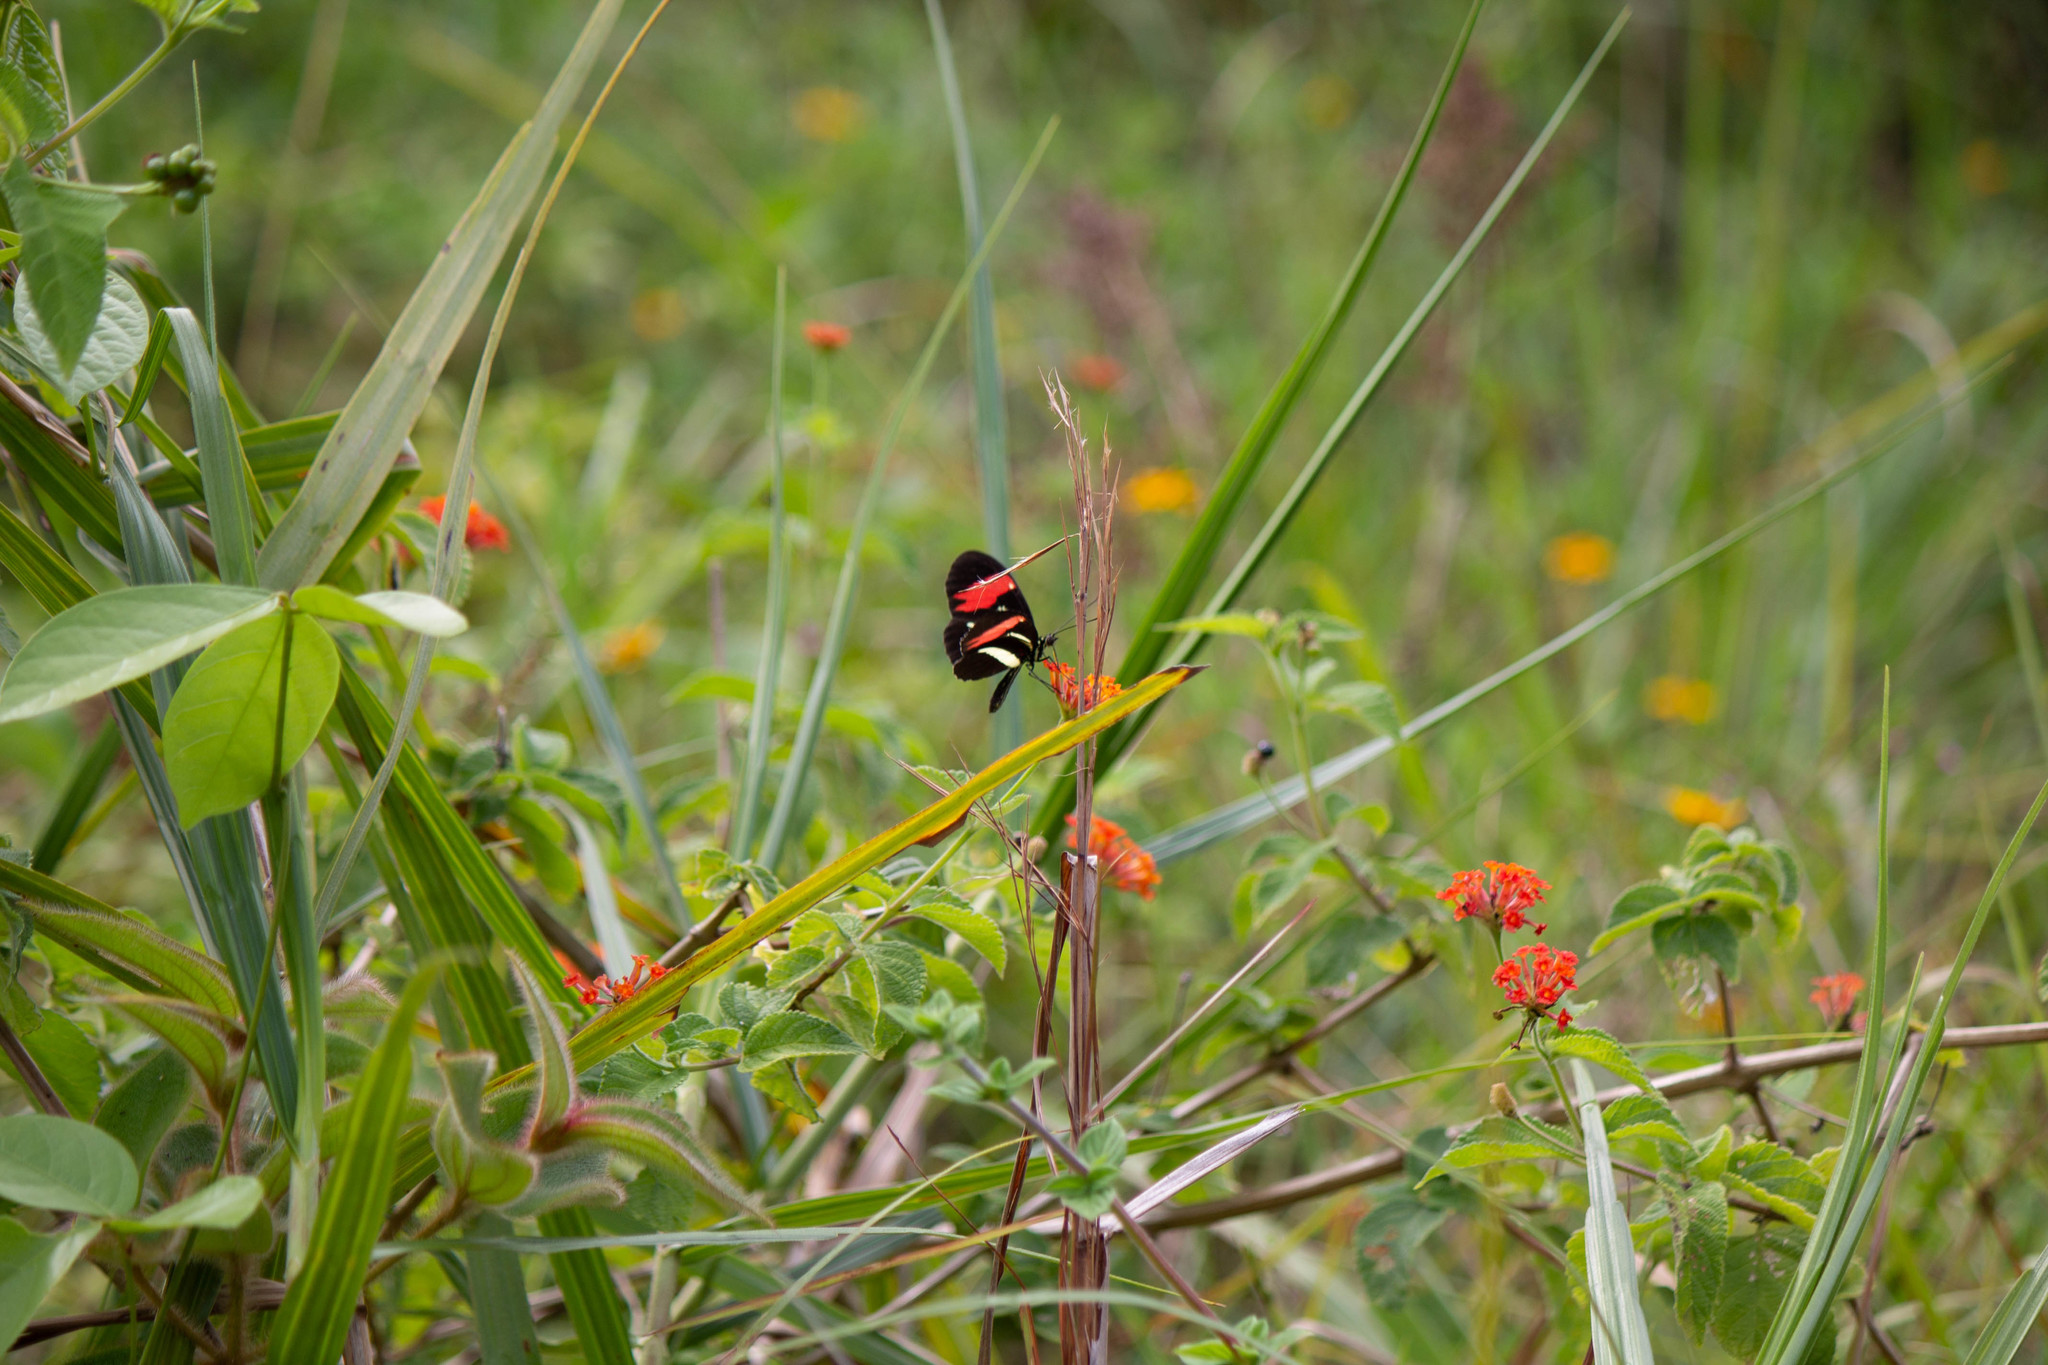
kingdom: Animalia
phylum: Arthropoda
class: Insecta
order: Lepidoptera
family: Nymphalidae
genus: Heliconius
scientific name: Heliconius erato
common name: Common patch longwing
